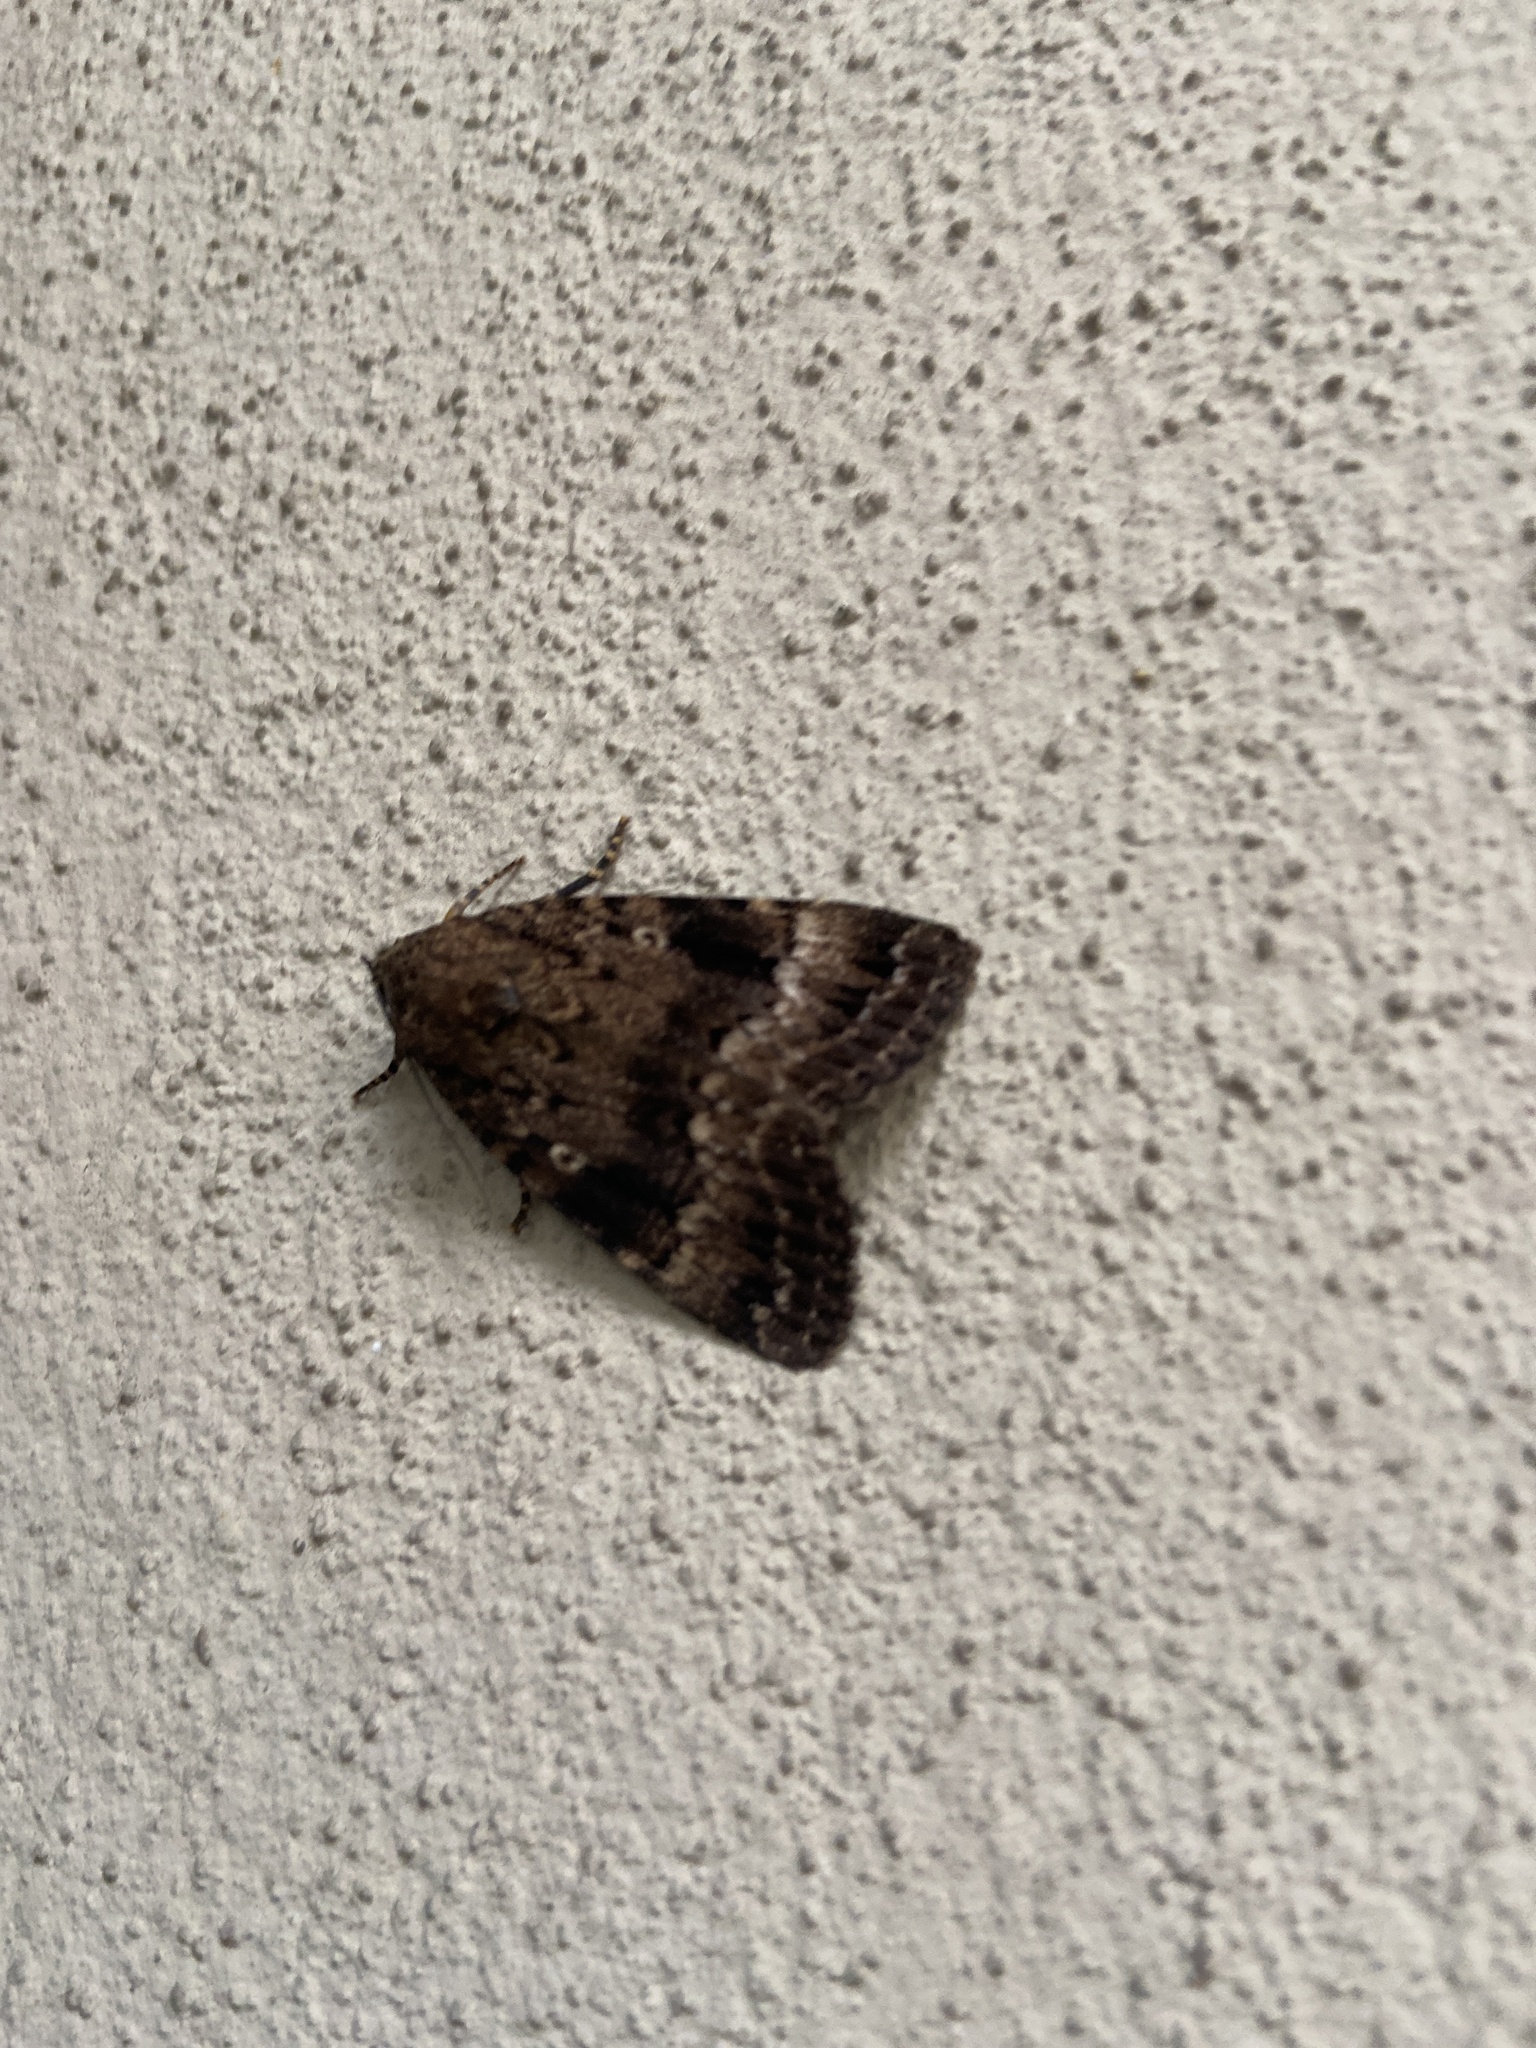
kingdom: Animalia
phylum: Arthropoda
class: Insecta
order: Lepidoptera
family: Noctuidae
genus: Amphipyra
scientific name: Amphipyra berbera
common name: Svensson's copper underwing
